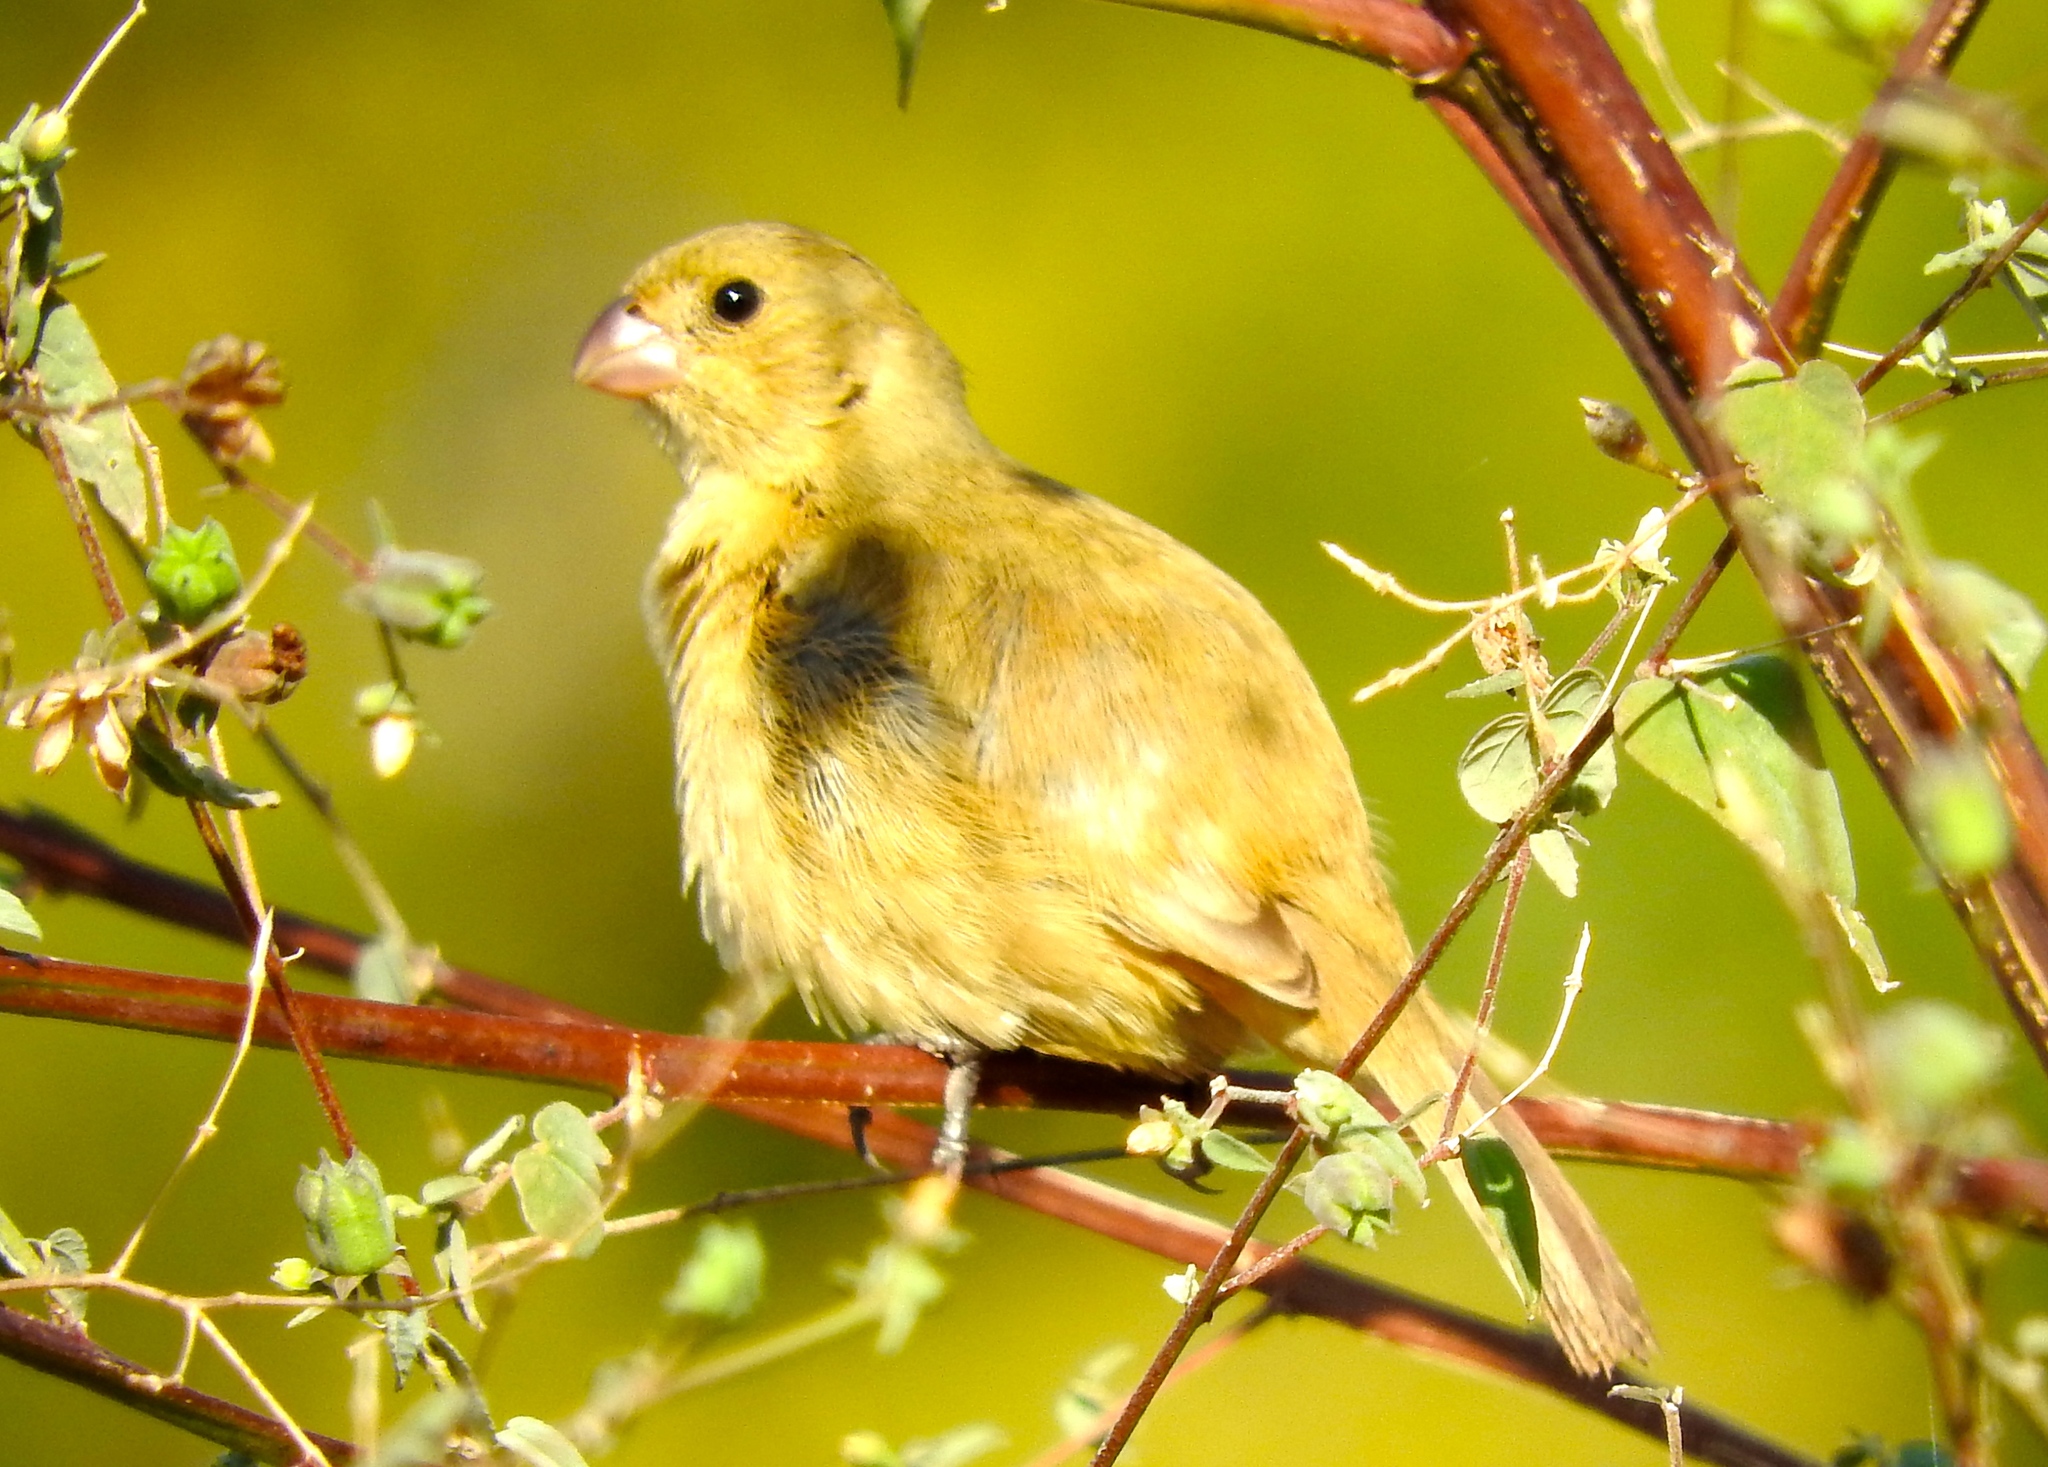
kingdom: Animalia
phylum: Chordata
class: Aves
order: Passeriformes
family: Thraupidae
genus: Sporophila
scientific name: Sporophila
